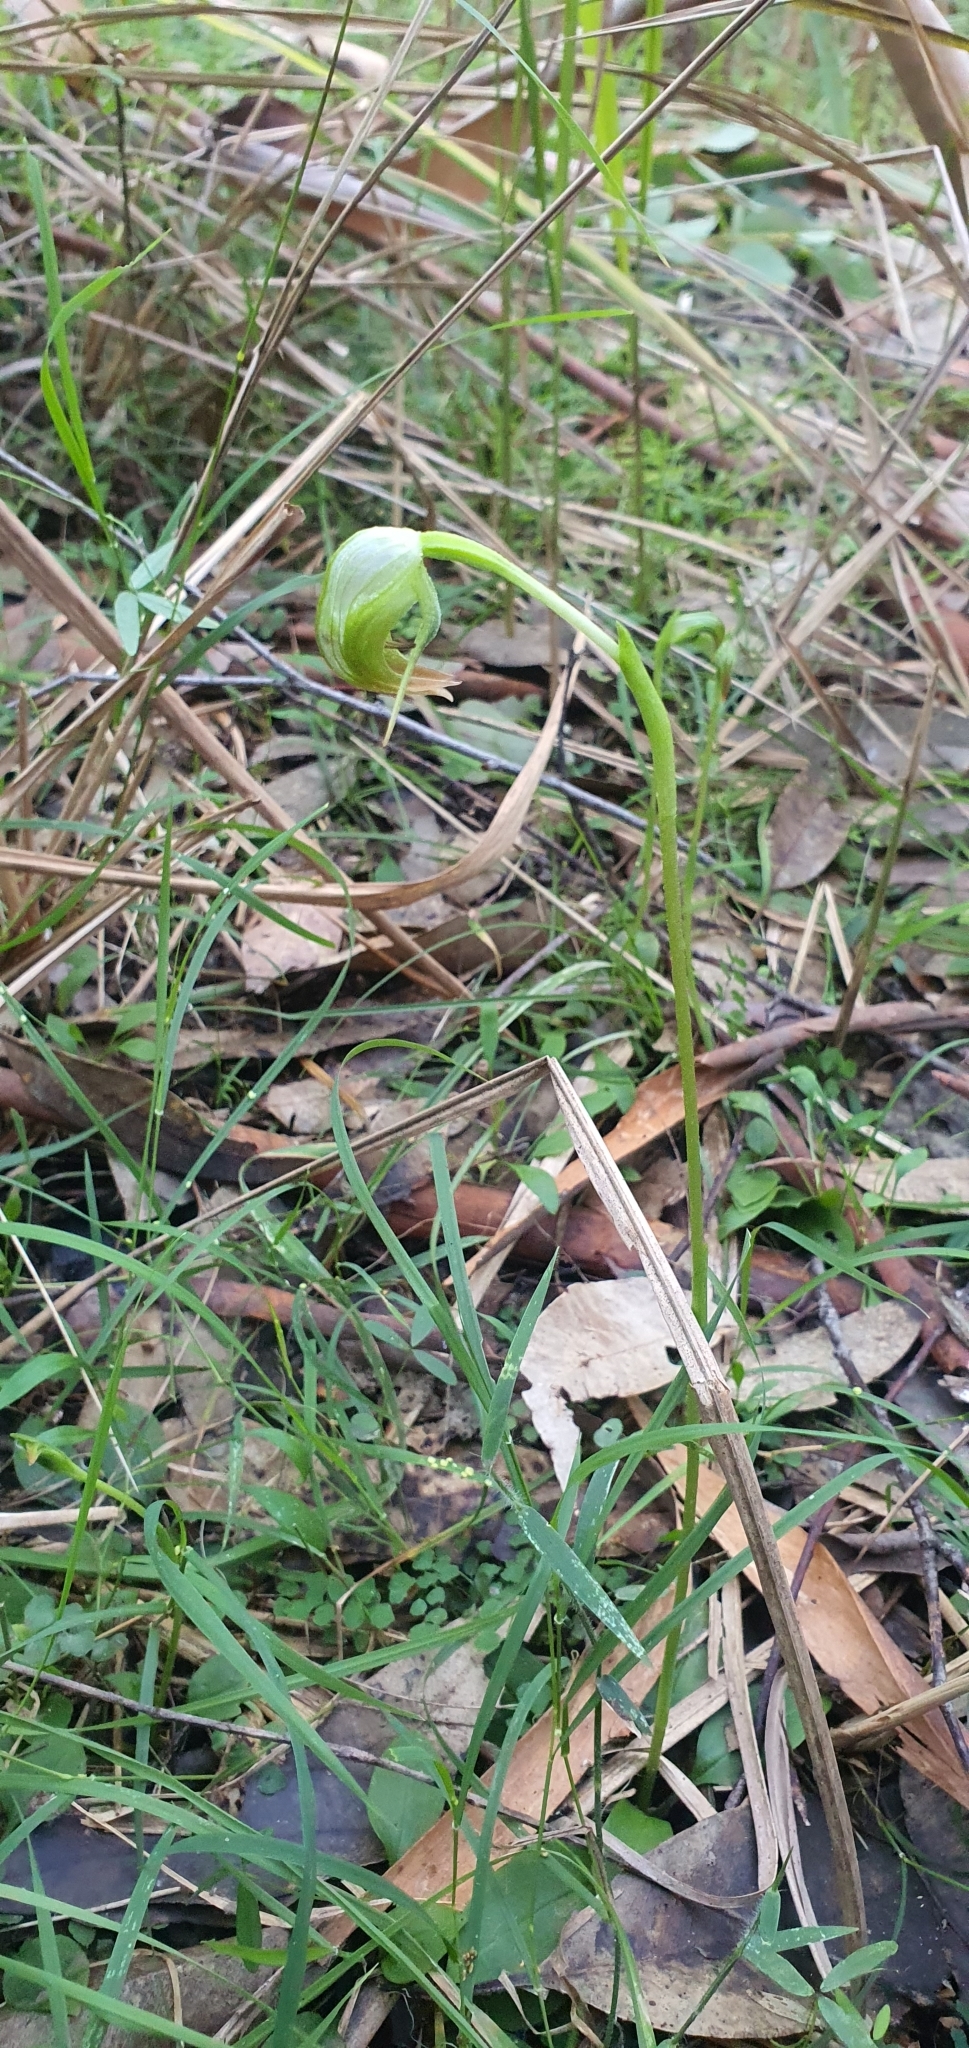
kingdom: Plantae
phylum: Tracheophyta
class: Liliopsida
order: Asparagales
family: Orchidaceae
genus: Pterostylis
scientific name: Pterostylis nutans
